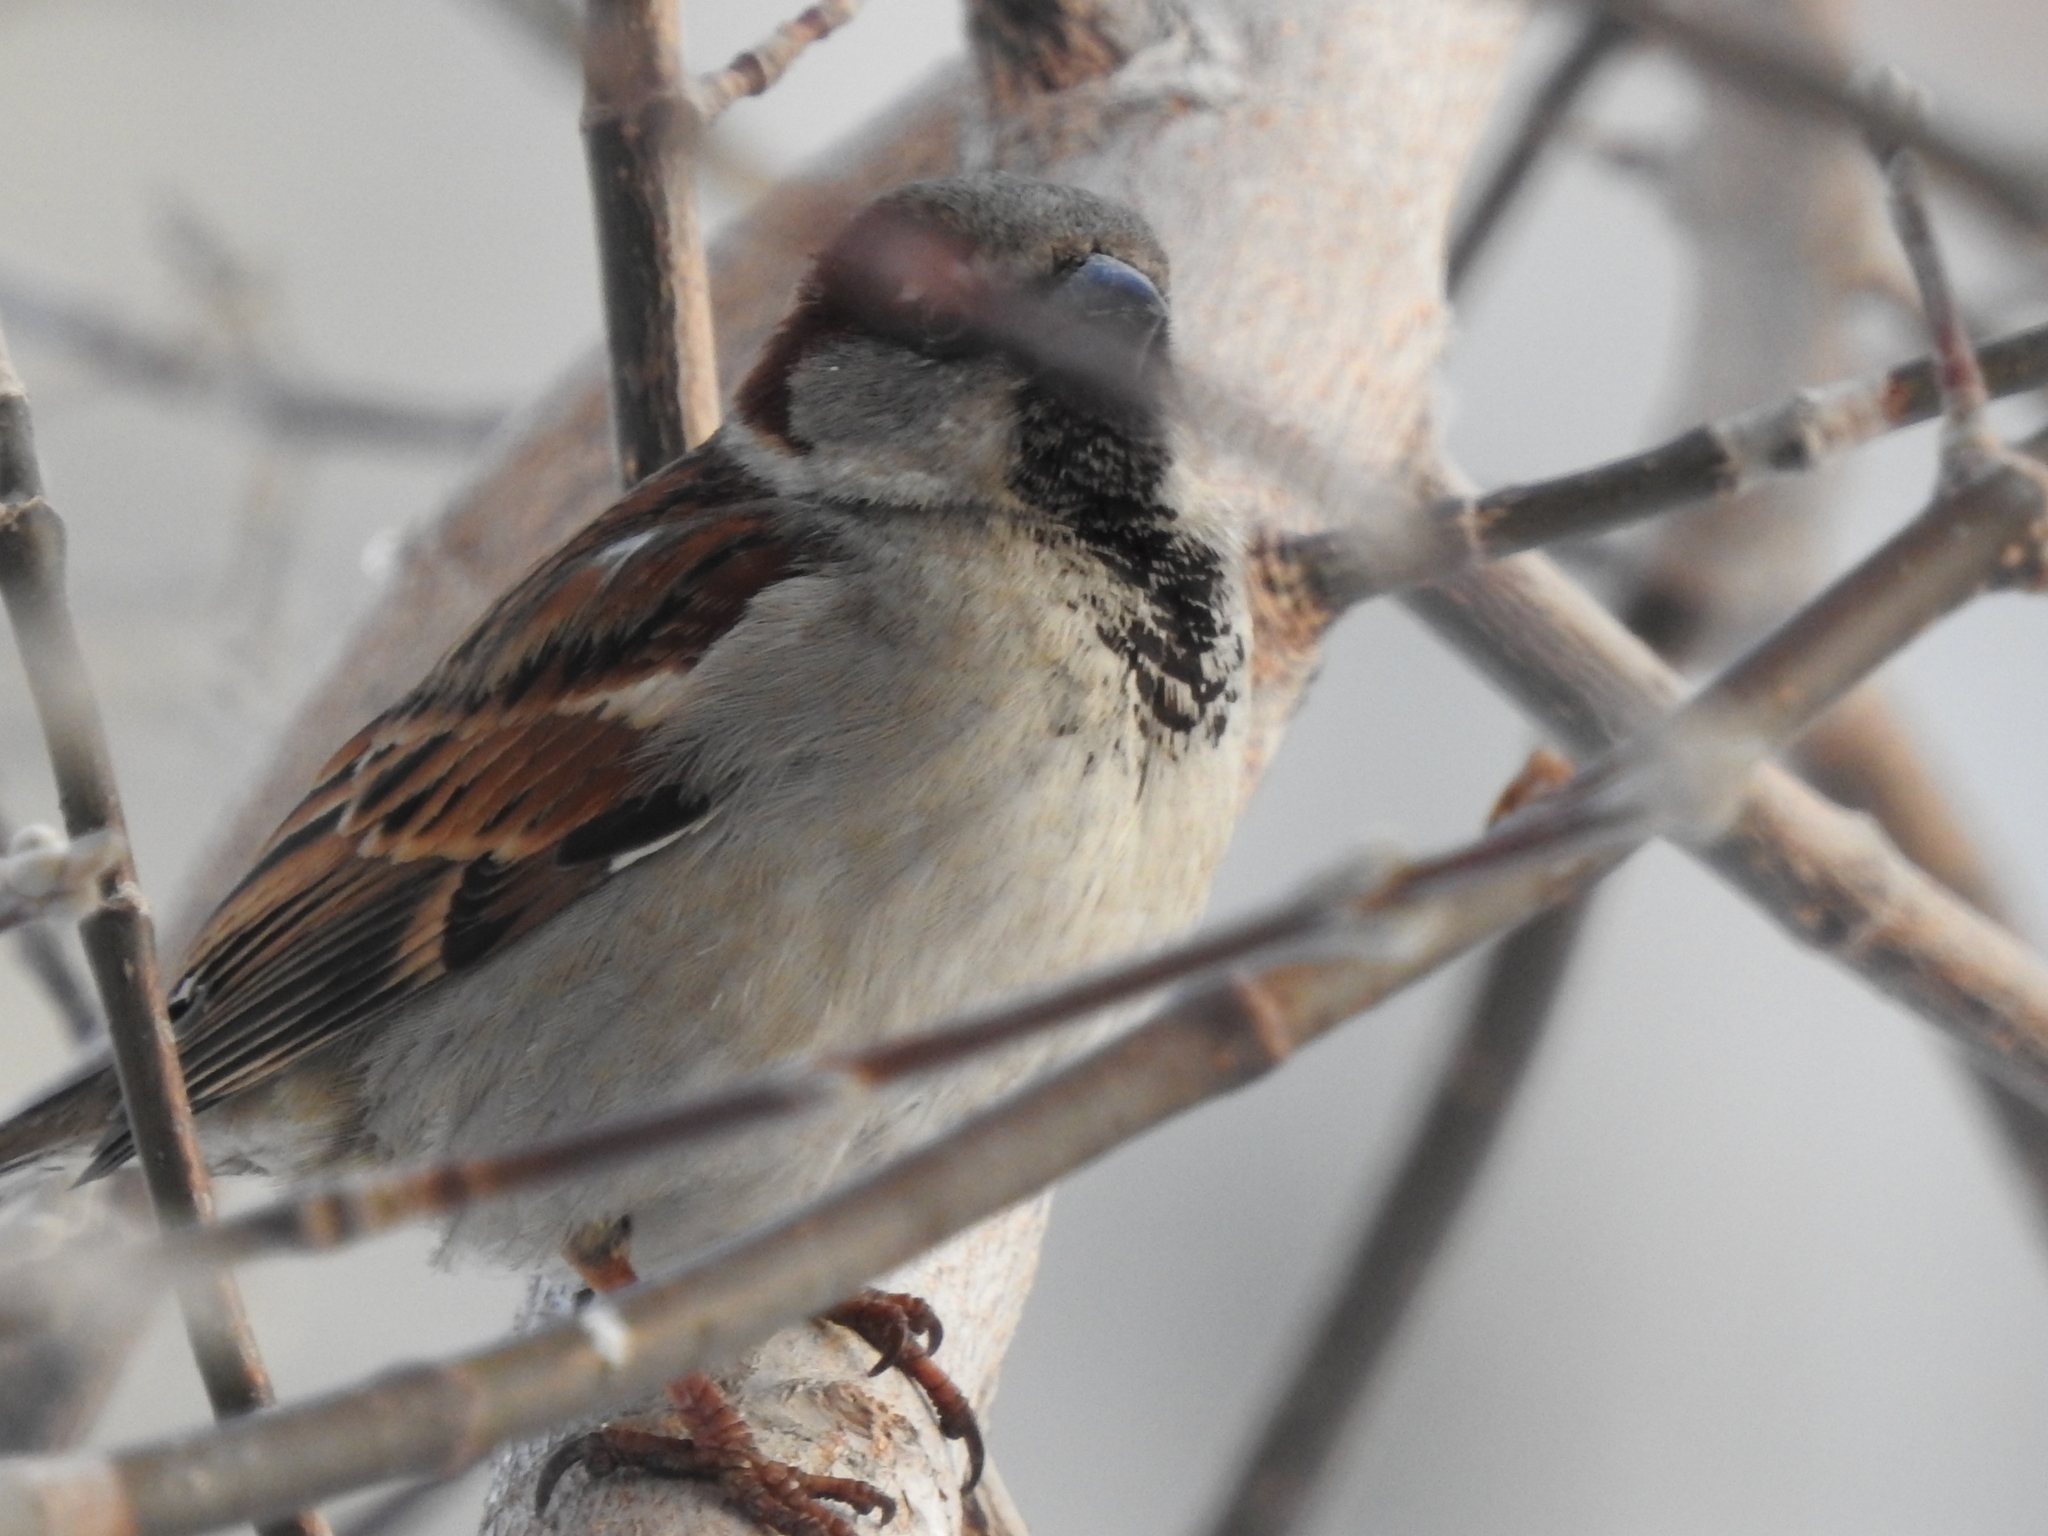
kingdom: Animalia
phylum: Chordata
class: Aves
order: Passeriformes
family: Passeridae
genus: Passer
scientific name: Passer domesticus
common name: House sparrow
